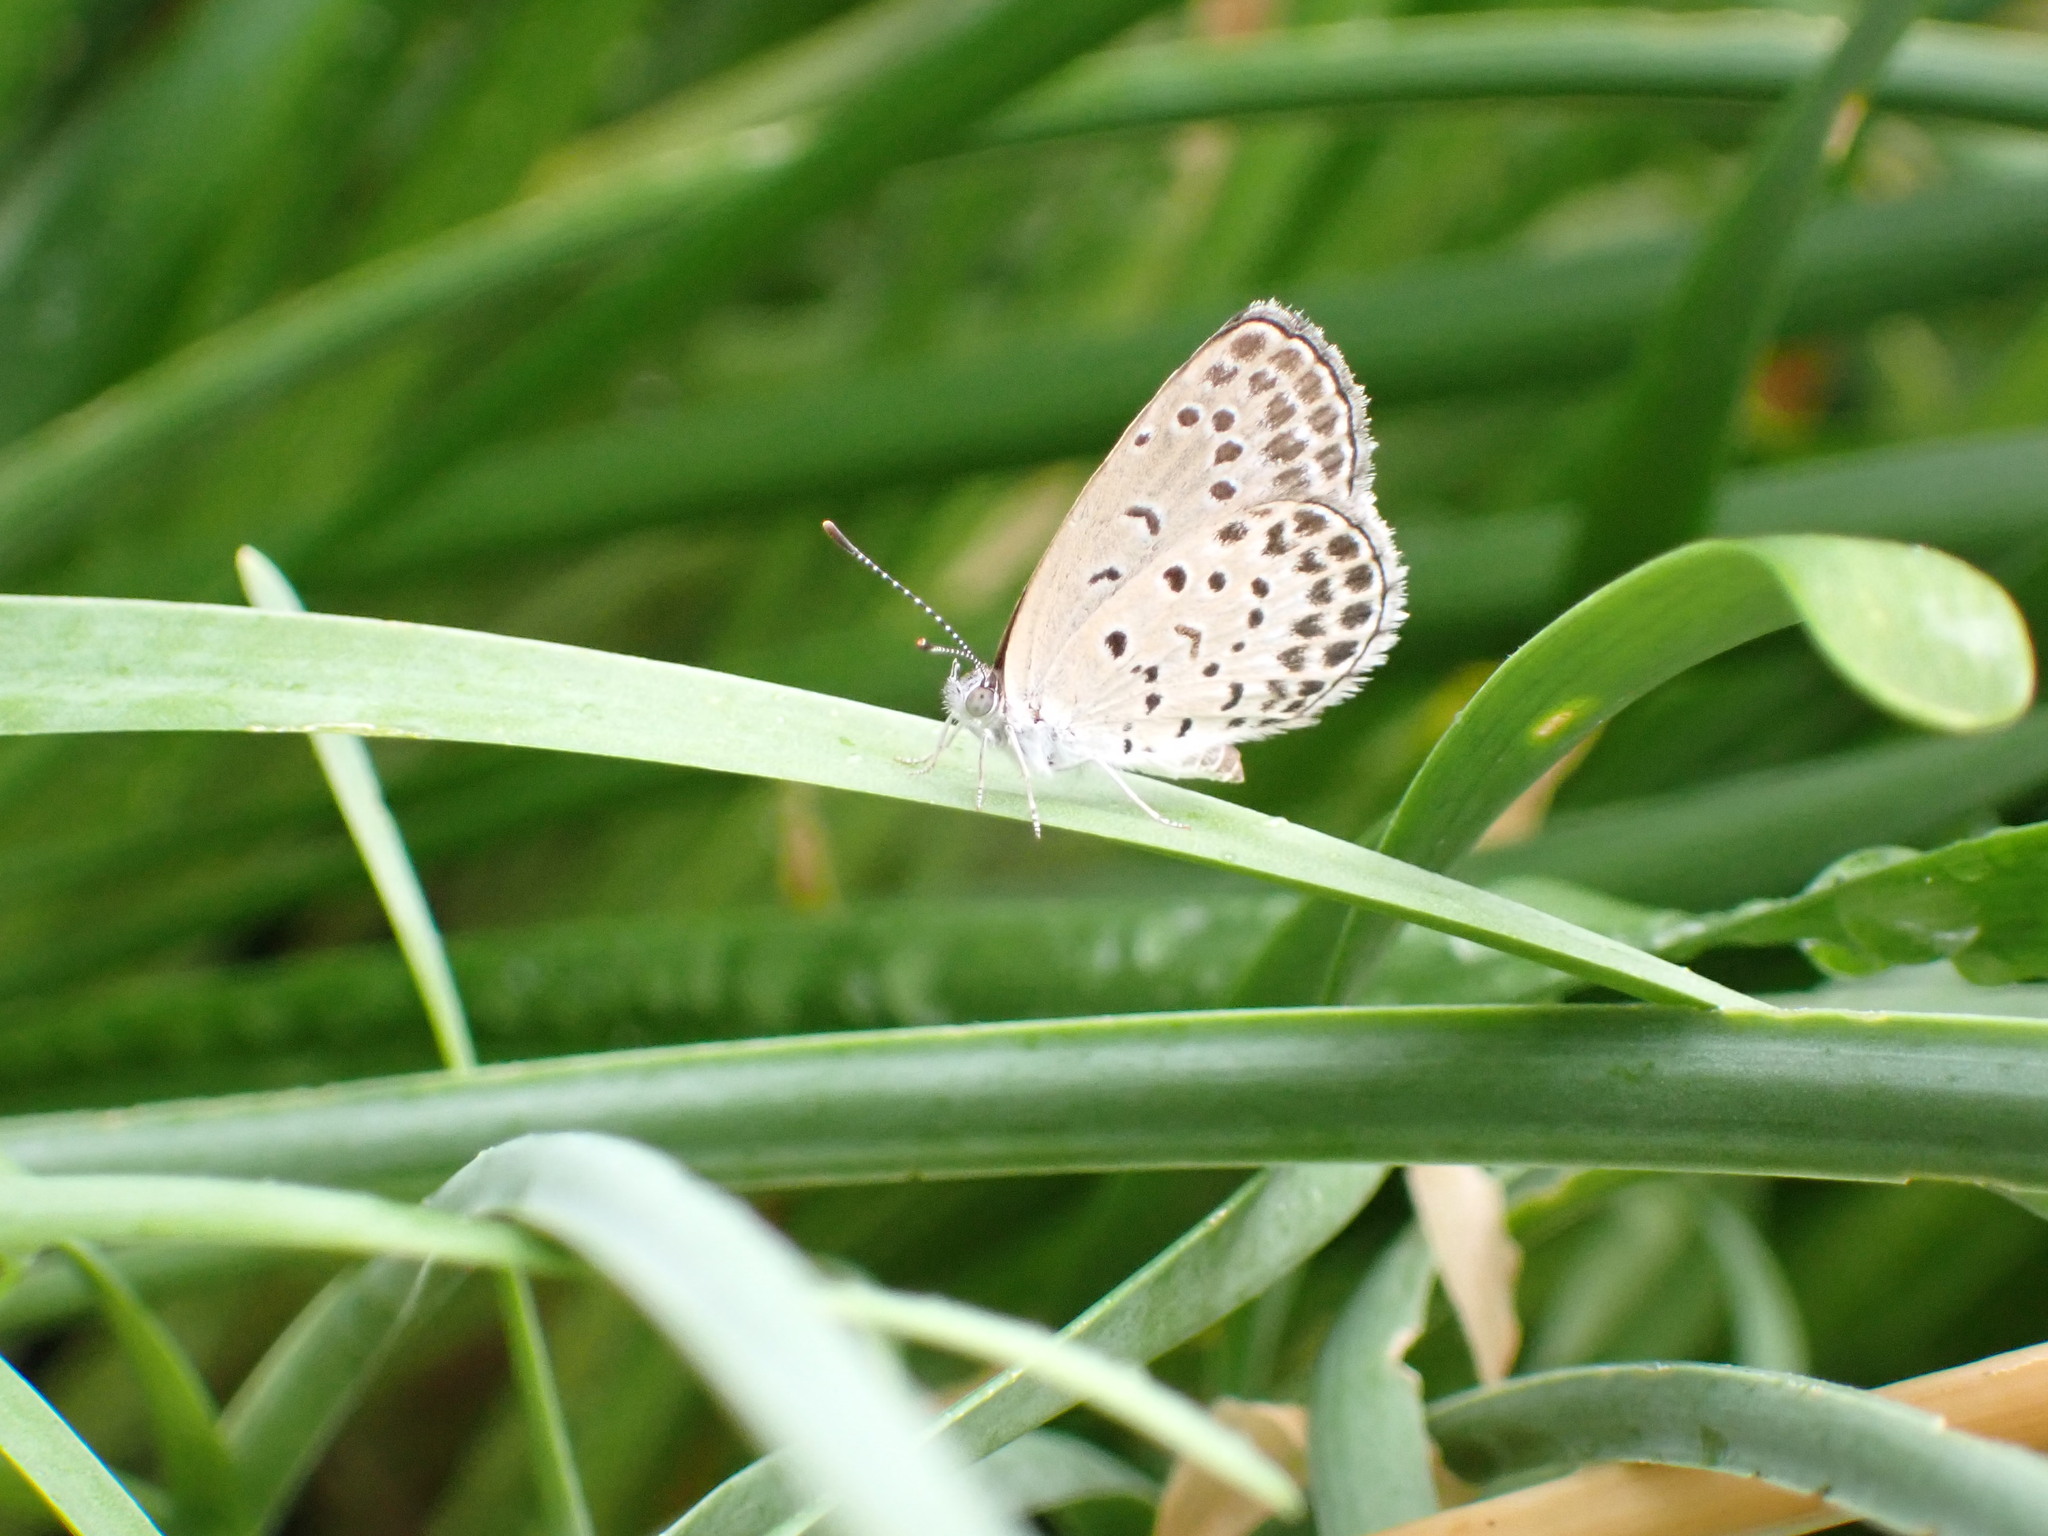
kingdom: Animalia
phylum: Arthropoda
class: Insecta
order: Lepidoptera
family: Lycaenidae
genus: Pseudozizeeria
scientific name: Pseudozizeeria maha
